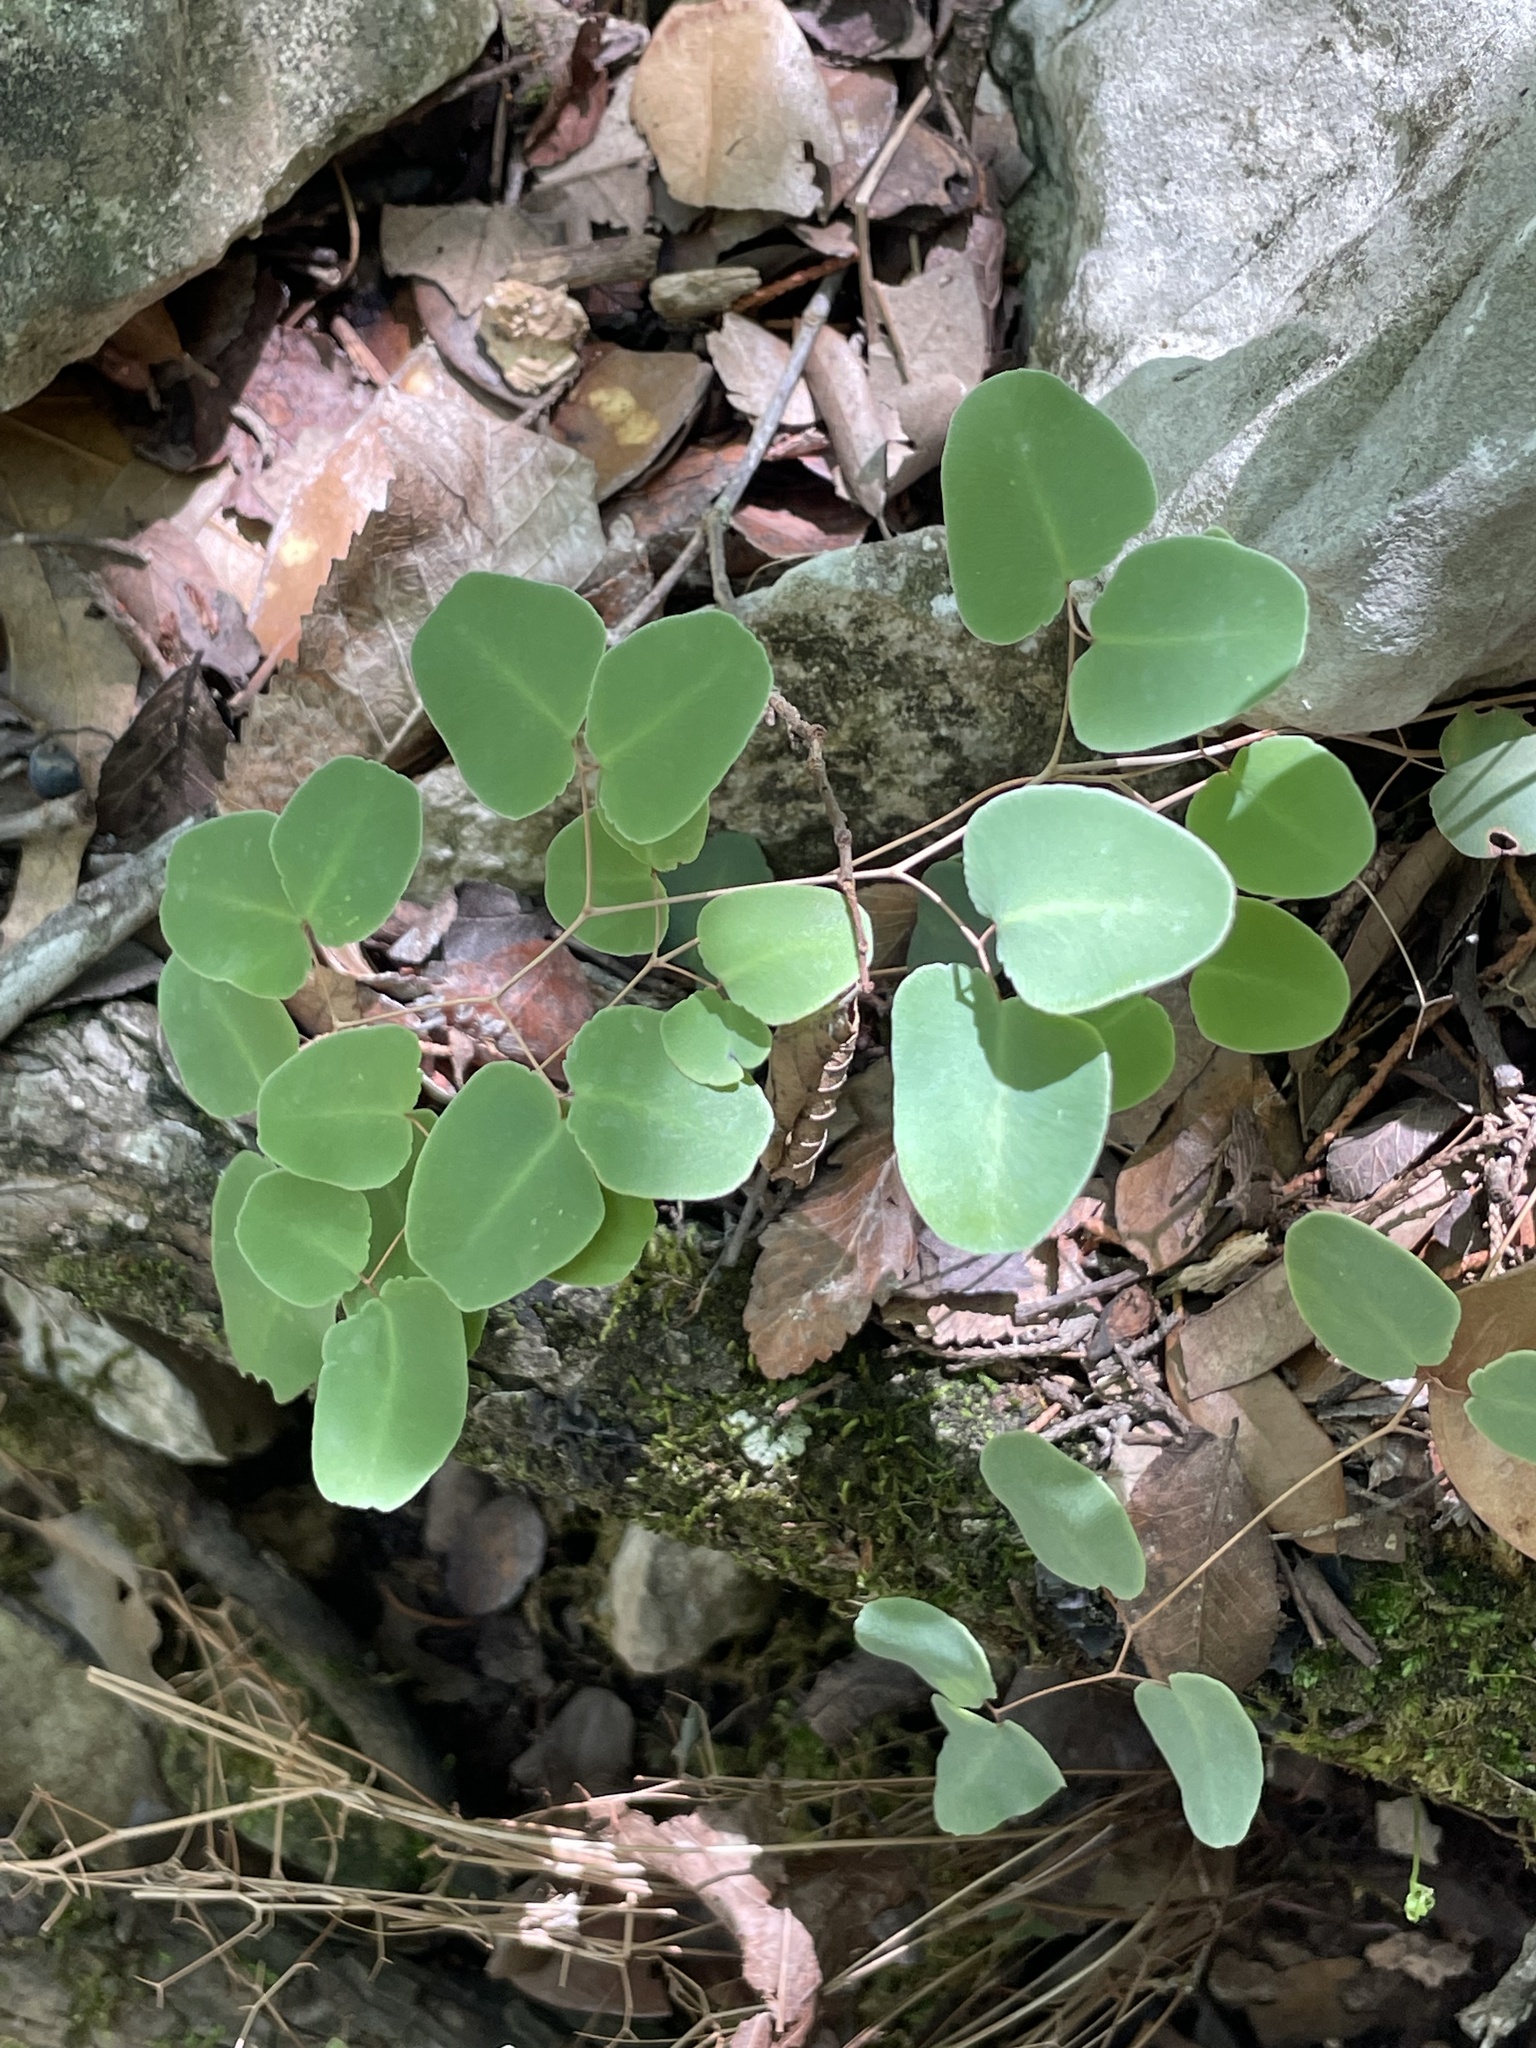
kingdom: Plantae
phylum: Tracheophyta
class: Polypodiopsida
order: Polypodiales
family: Pteridaceae
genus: Pellaea
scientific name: Pellaea ovata
